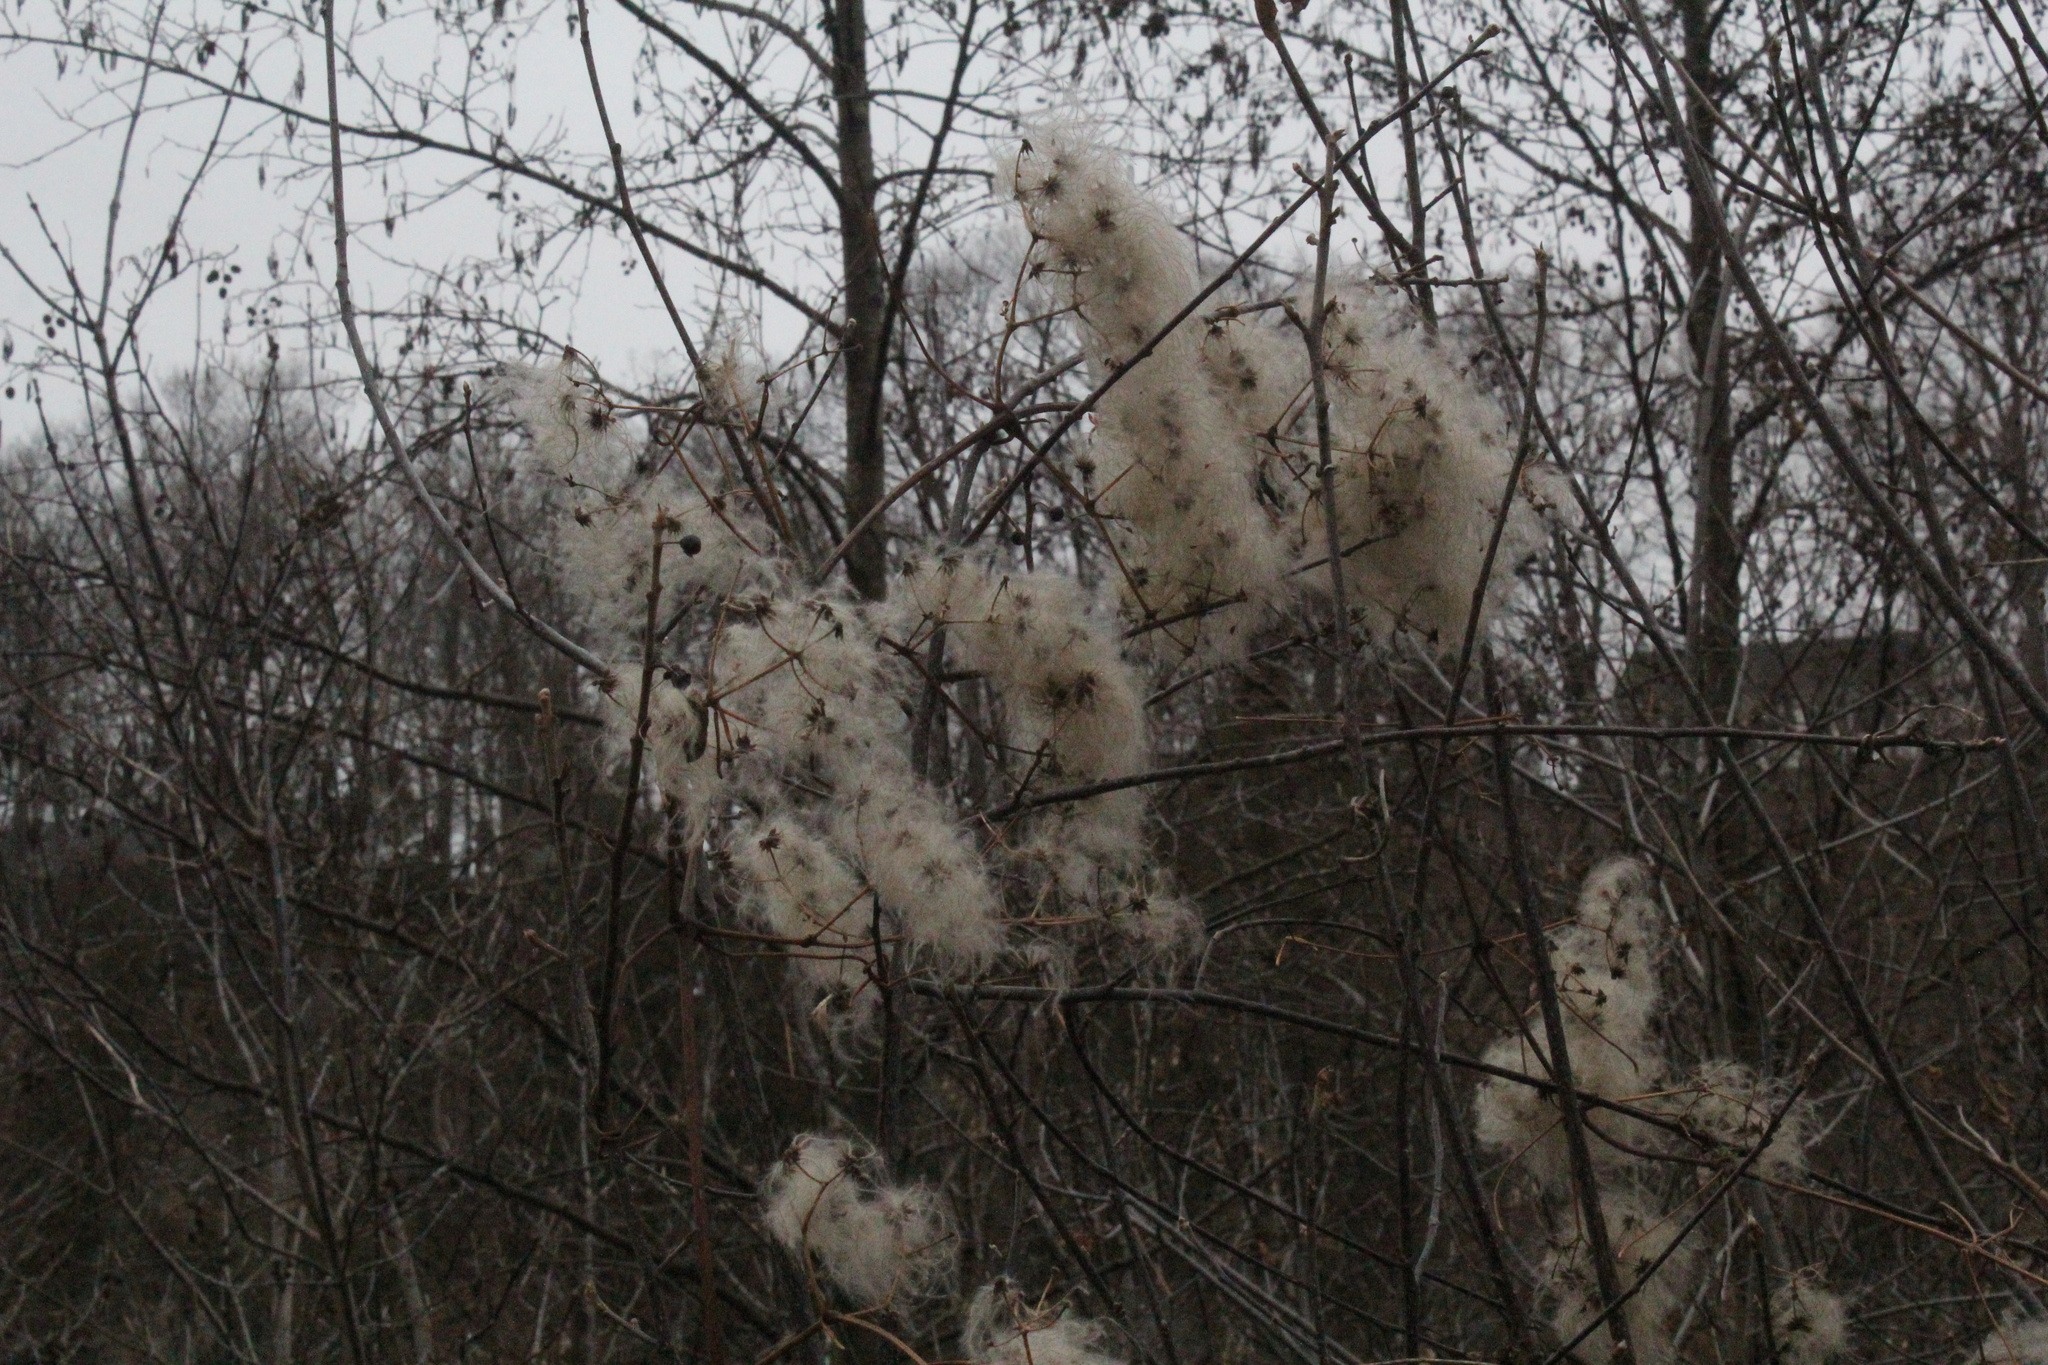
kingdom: Plantae
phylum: Tracheophyta
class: Magnoliopsida
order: Ranunculales
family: Ranunculaceae
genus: Clematis
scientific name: Clematis virginiana
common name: Virgin's-bower
